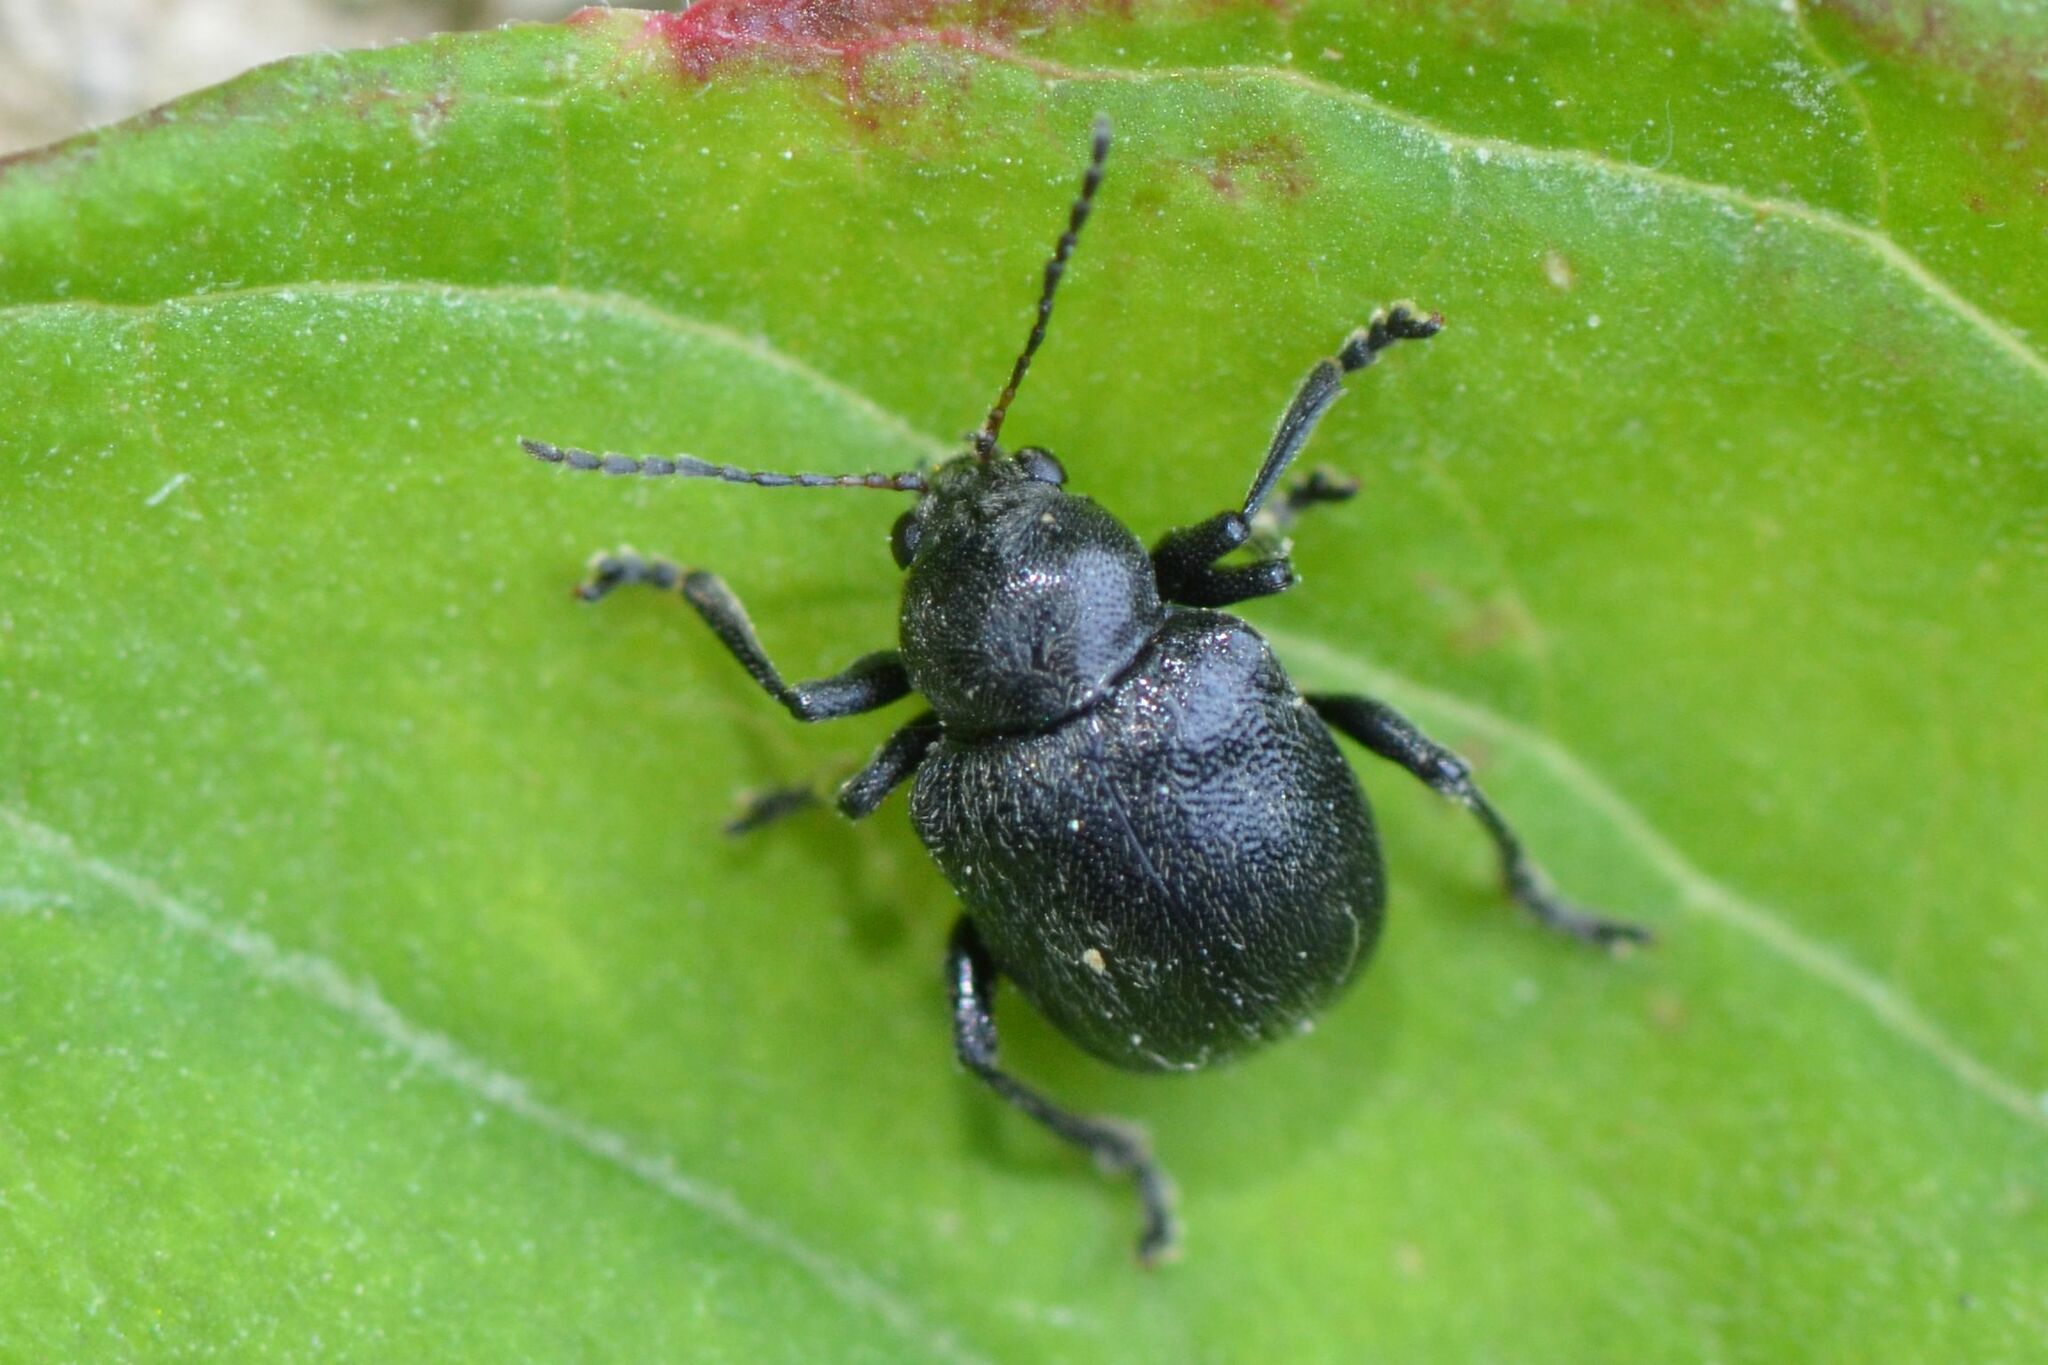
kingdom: Animalia
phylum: Arthropoda
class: Insecta
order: Coleoptera
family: Chrysomelidae
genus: Bromius
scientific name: Bromius obscurus
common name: Western grape rootworm
